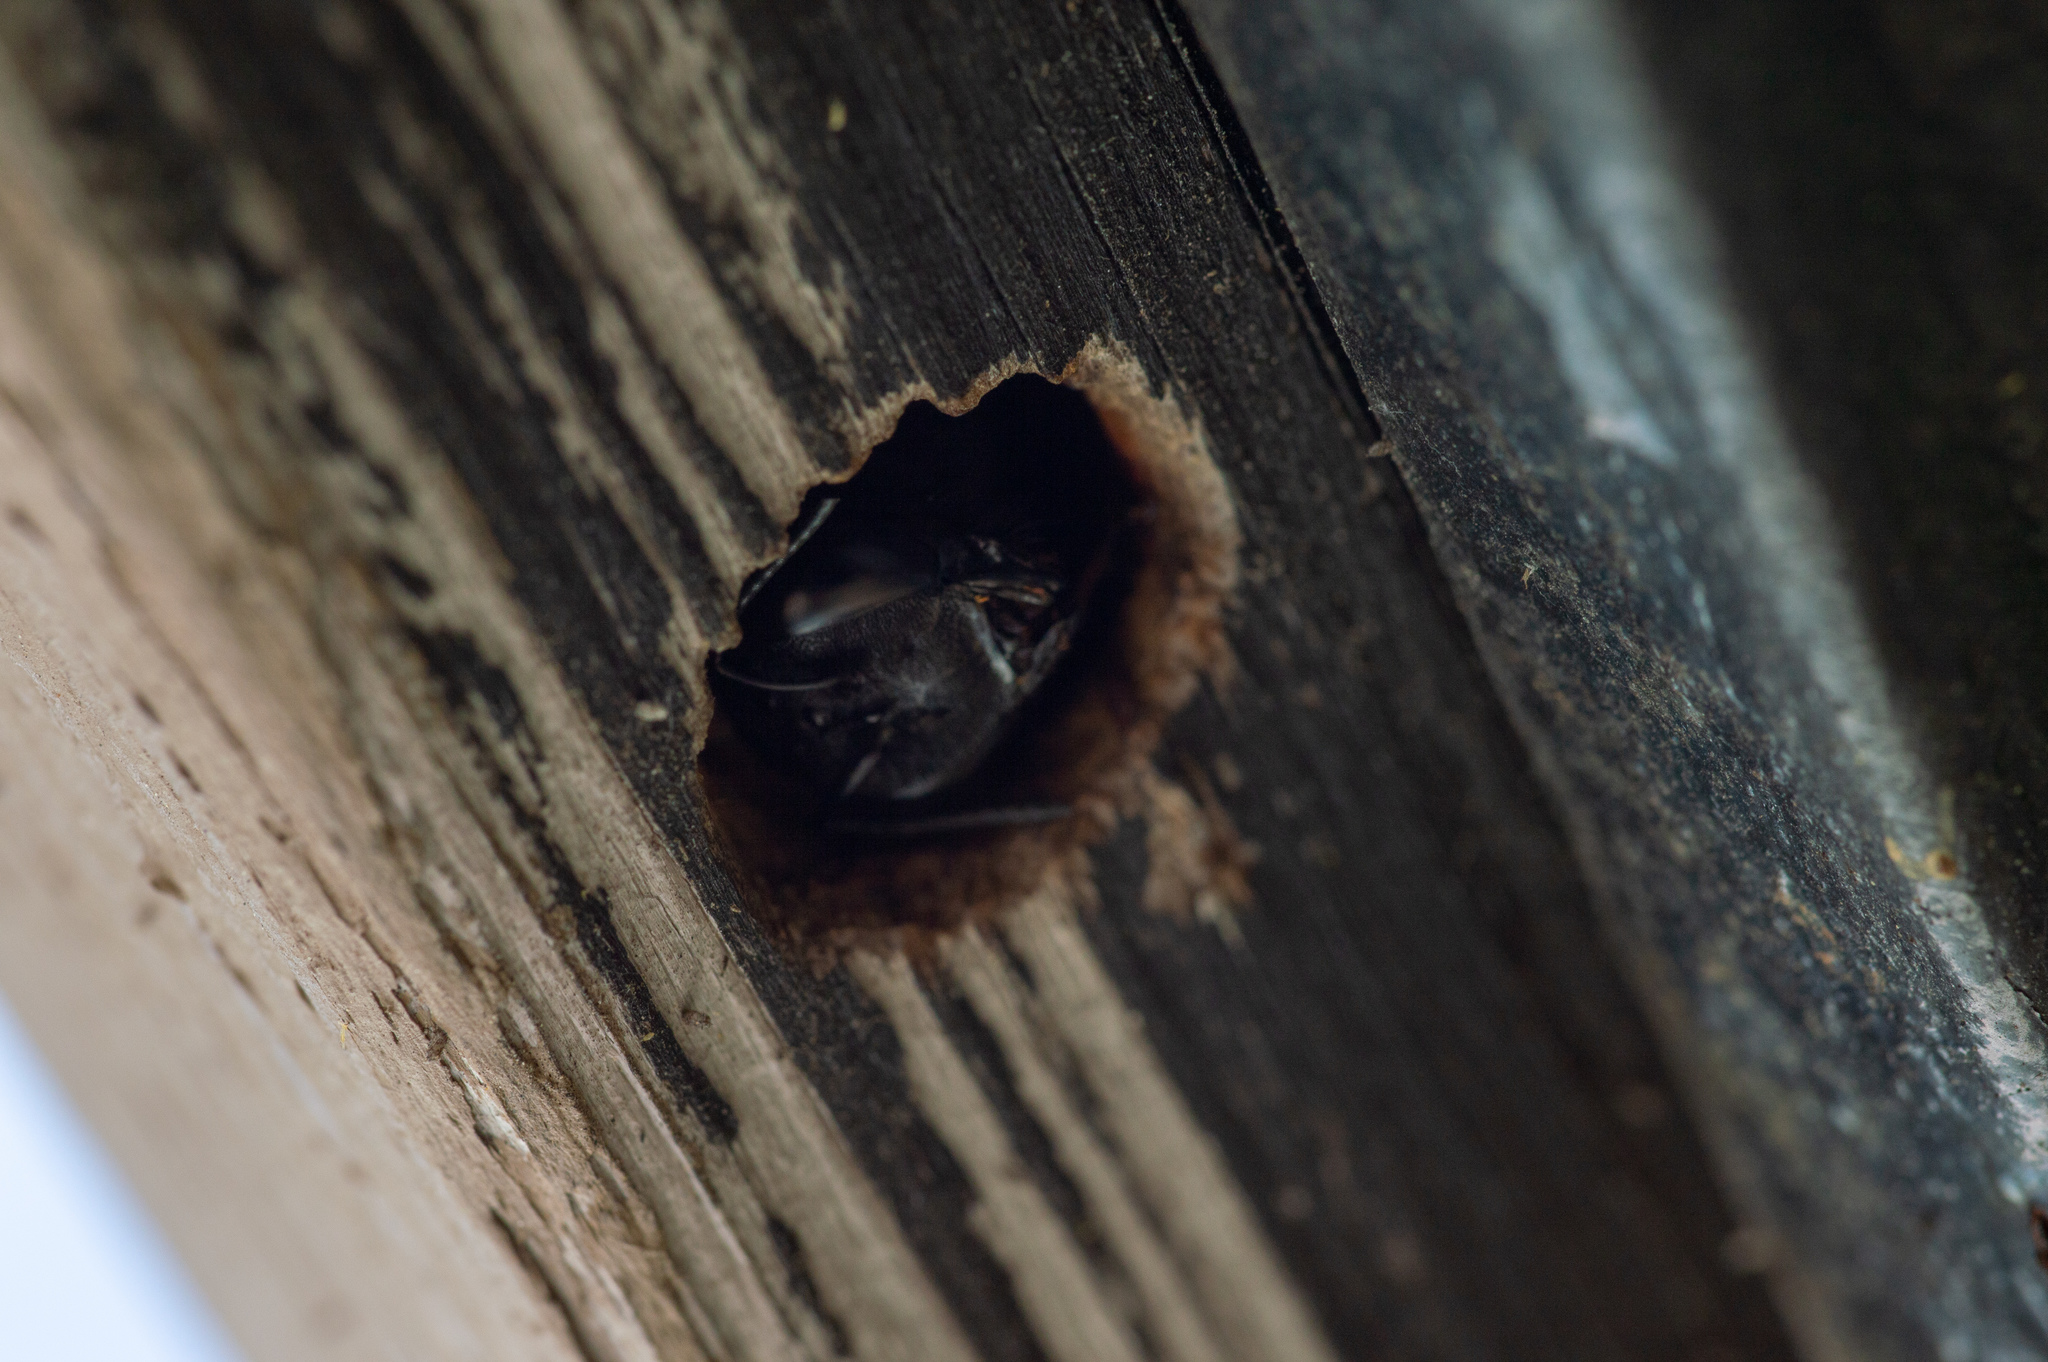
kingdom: Animalia
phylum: Arthropoda
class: Insecta
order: Hymenoptera
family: Apidae
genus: Xylocopa
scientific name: Xylocopa virginica
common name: Carpenter bee
